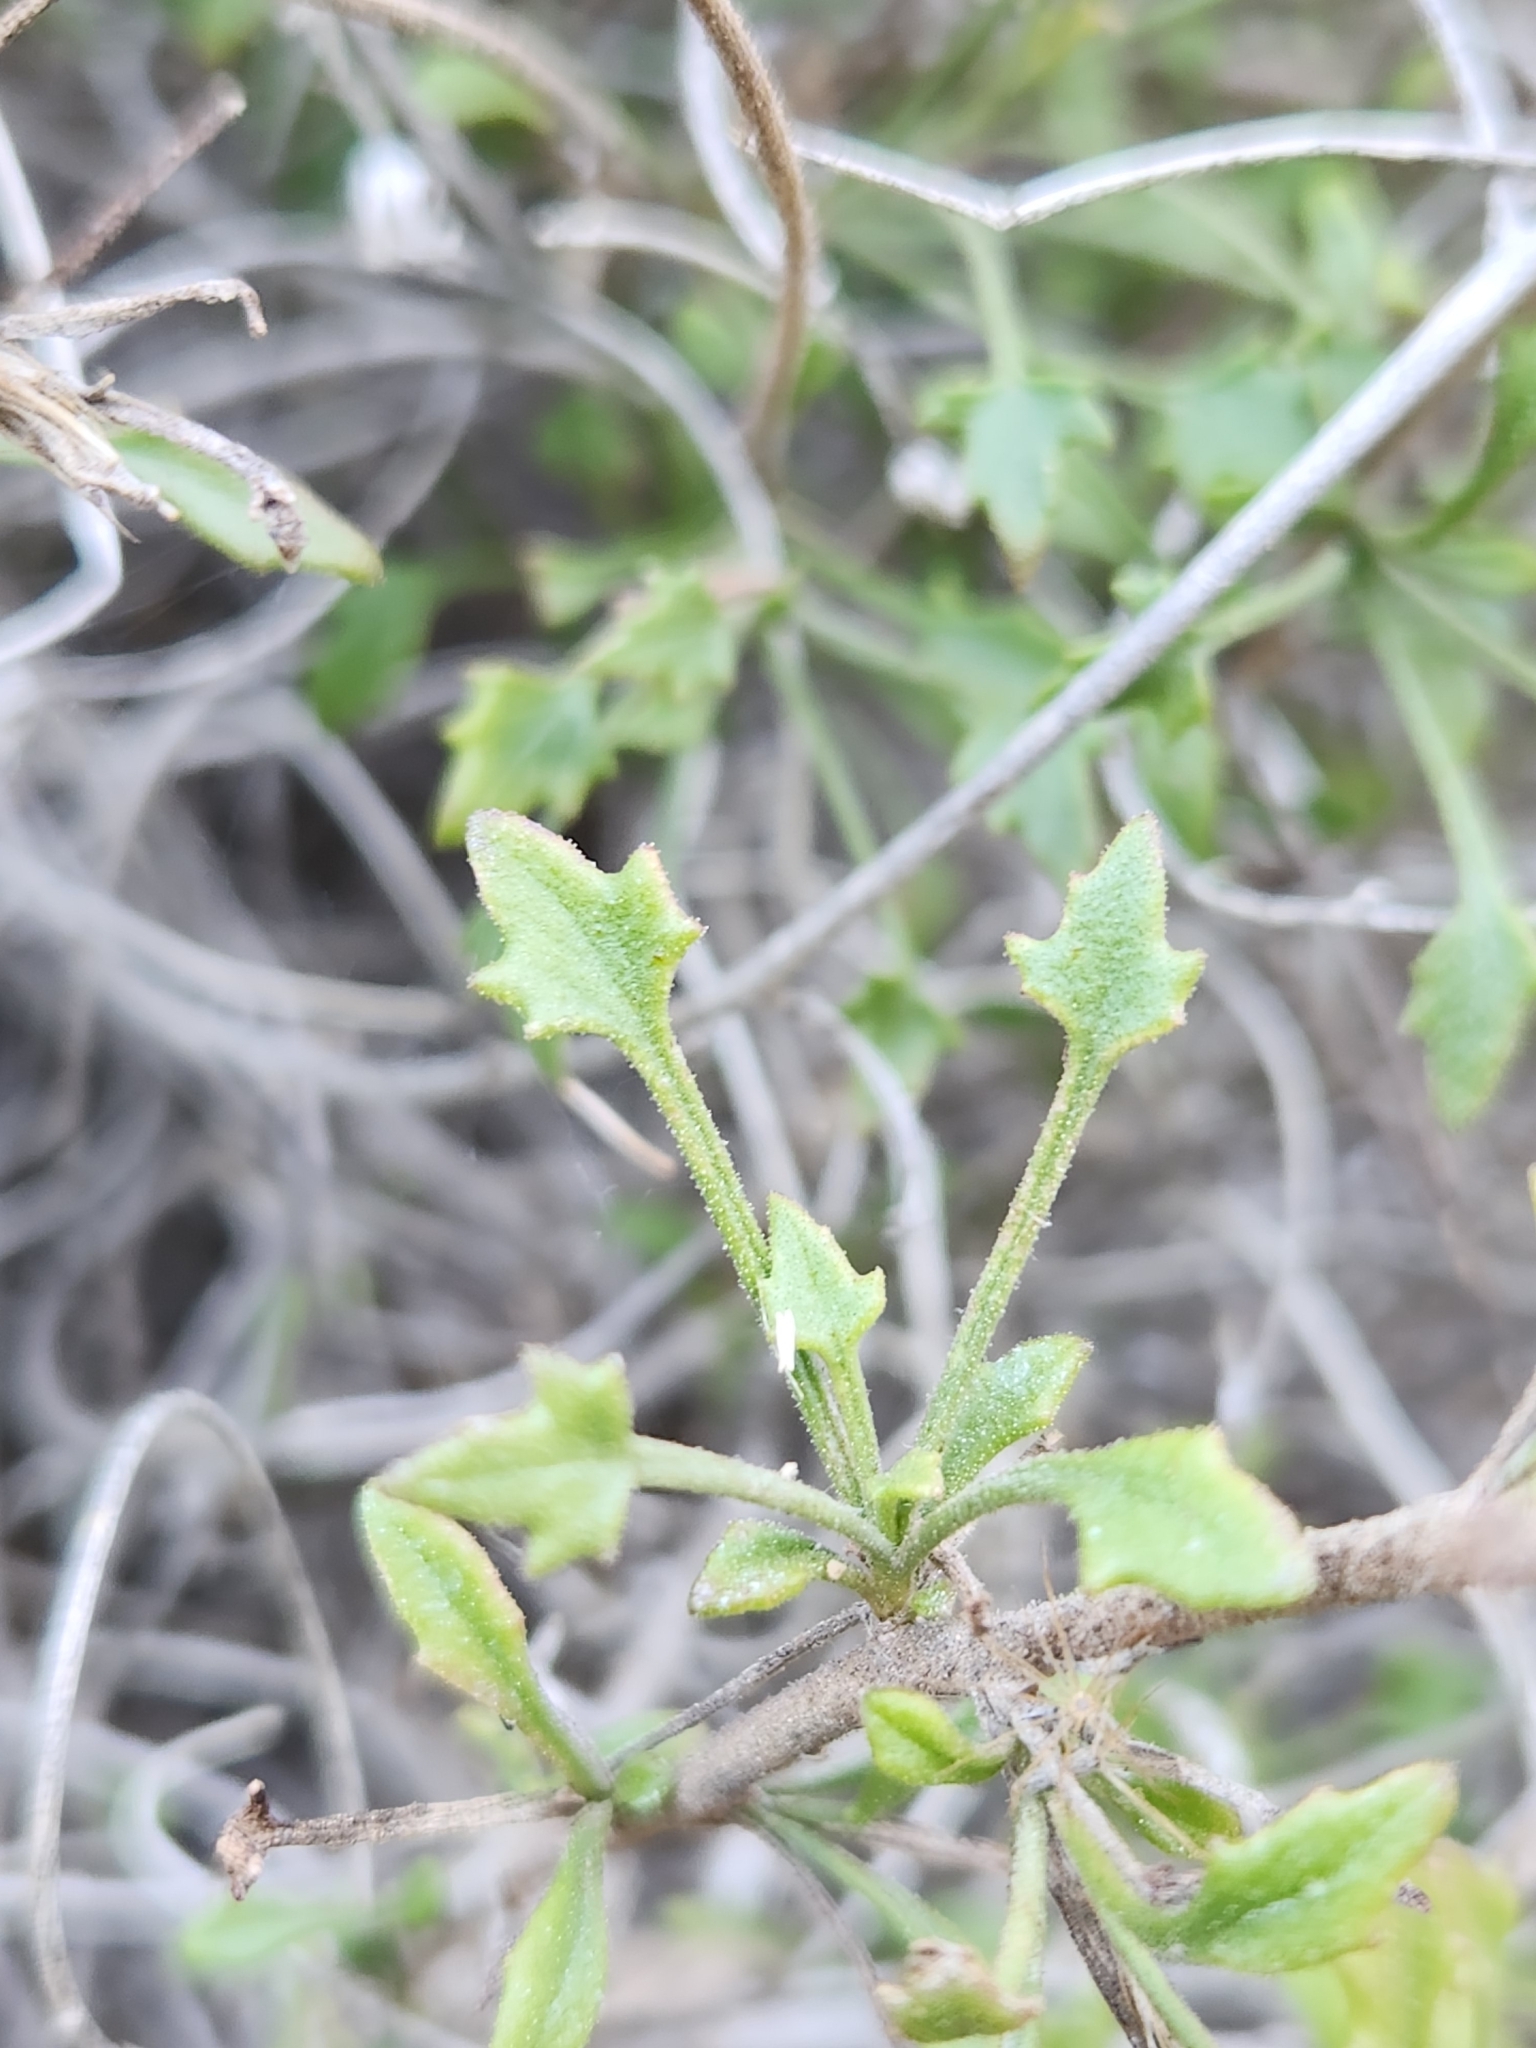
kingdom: Plantae
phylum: Tracheophyta
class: Magnoliopsida
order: Asterales
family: Asteraceae
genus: Pleurocoronis
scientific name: Pleurocoronis pluriseta
